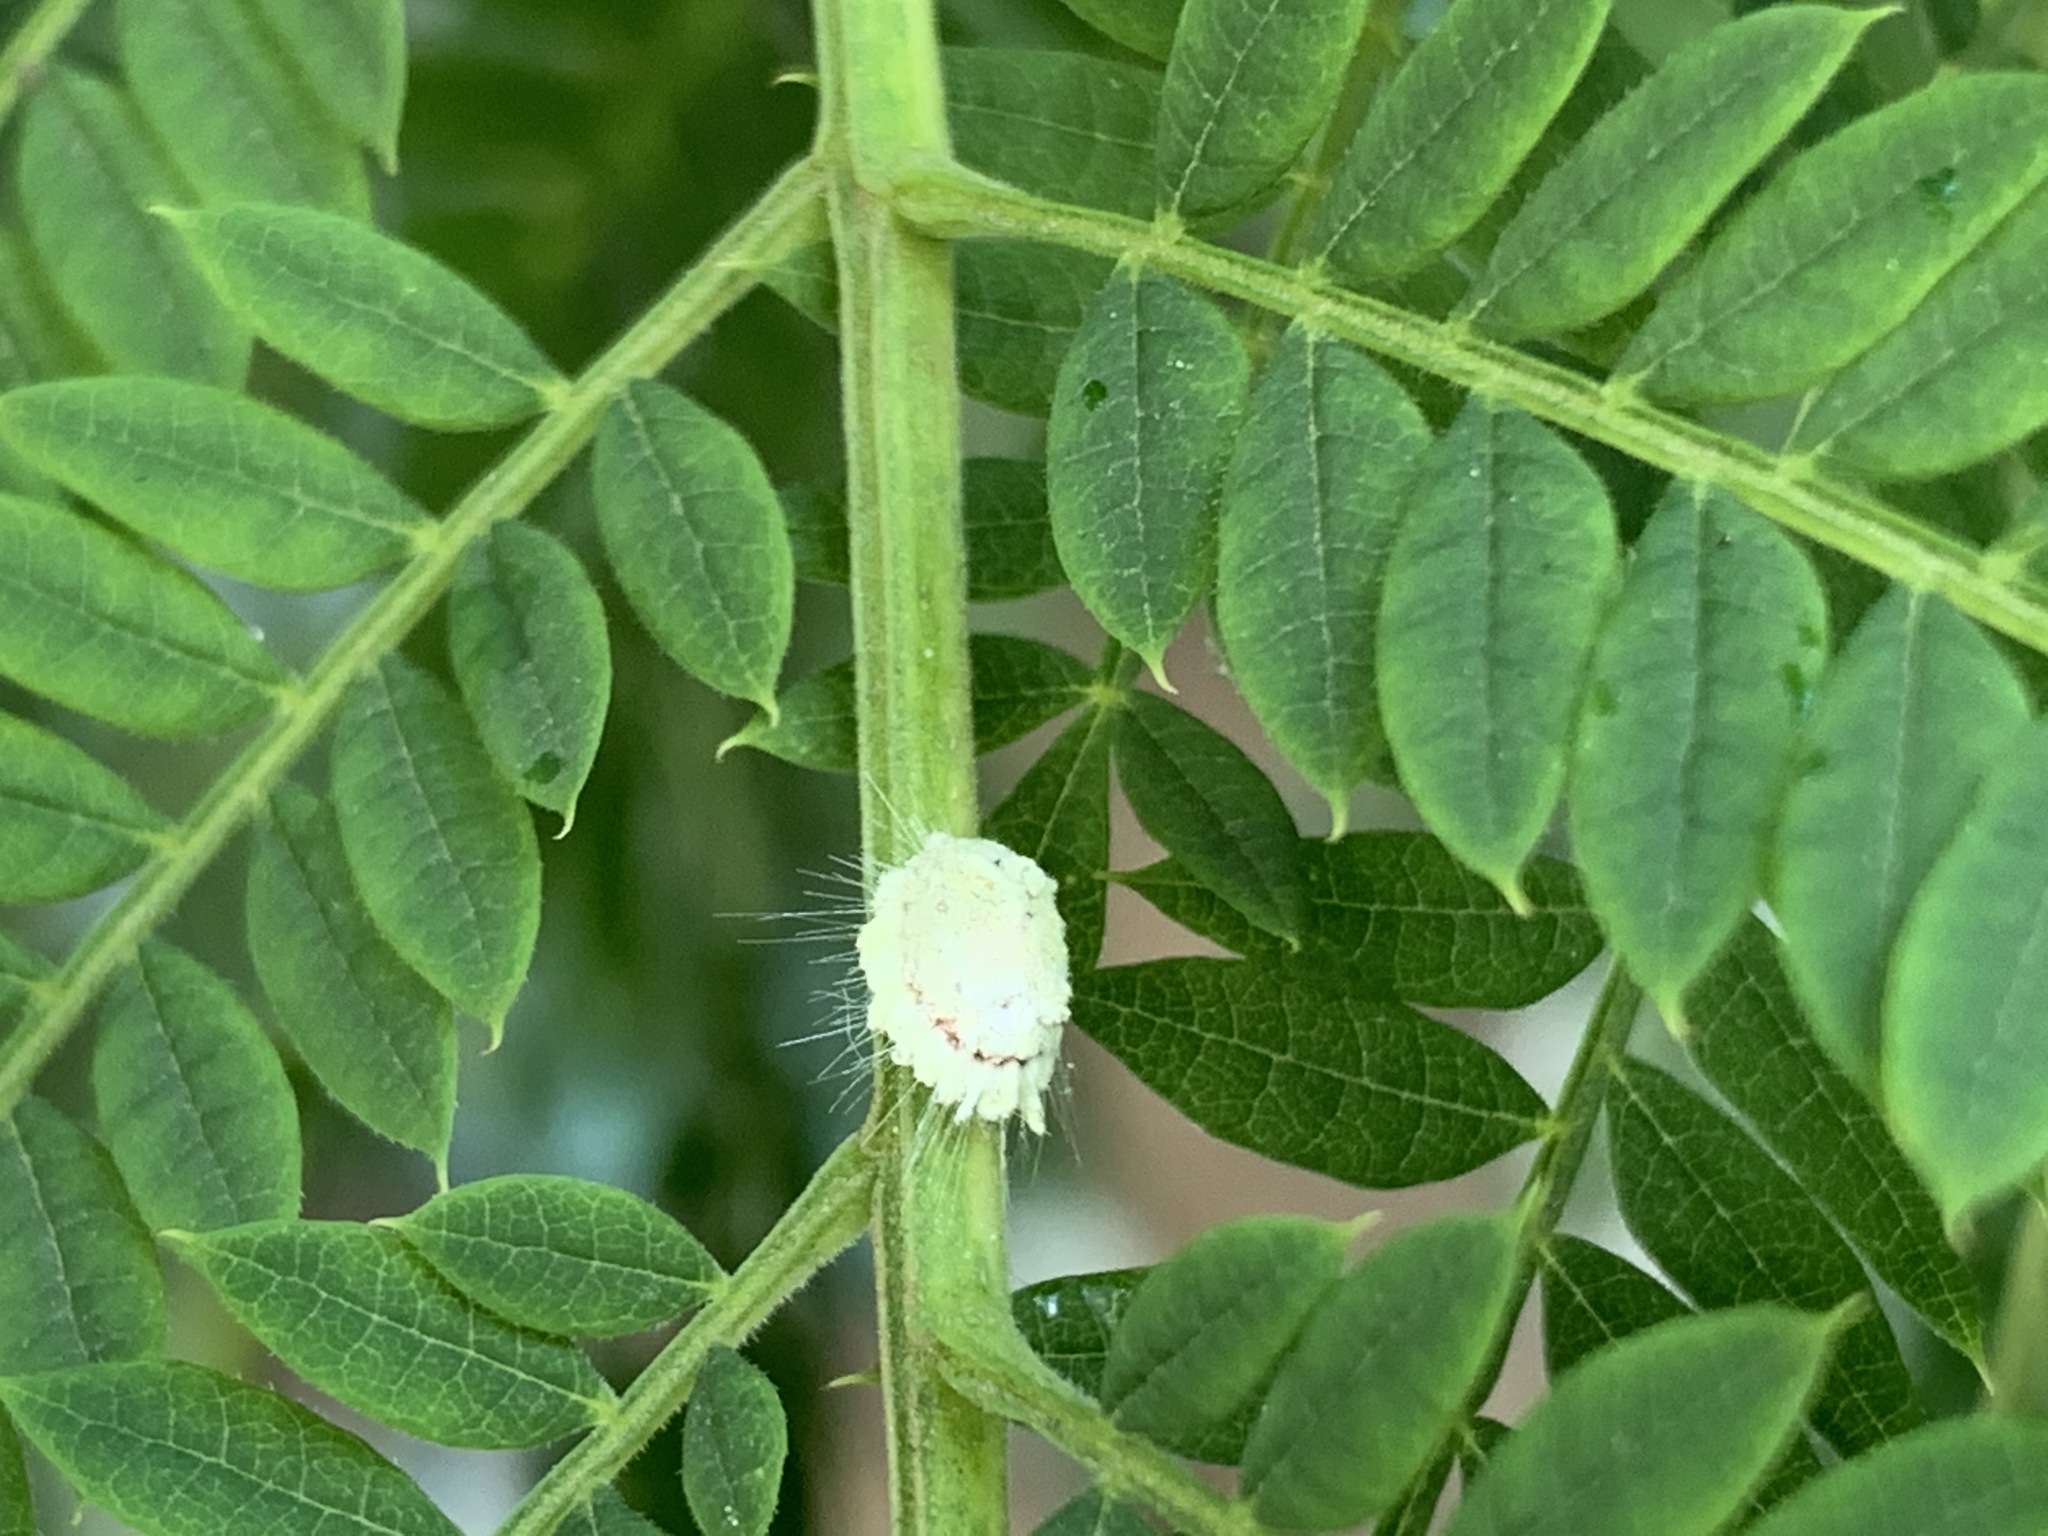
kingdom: Animalia
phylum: Arthropoda
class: Insecta
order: Hemiptera
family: Margarodidae
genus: Icerya
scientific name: Icerya purchasi
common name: Cottony cushion scale
